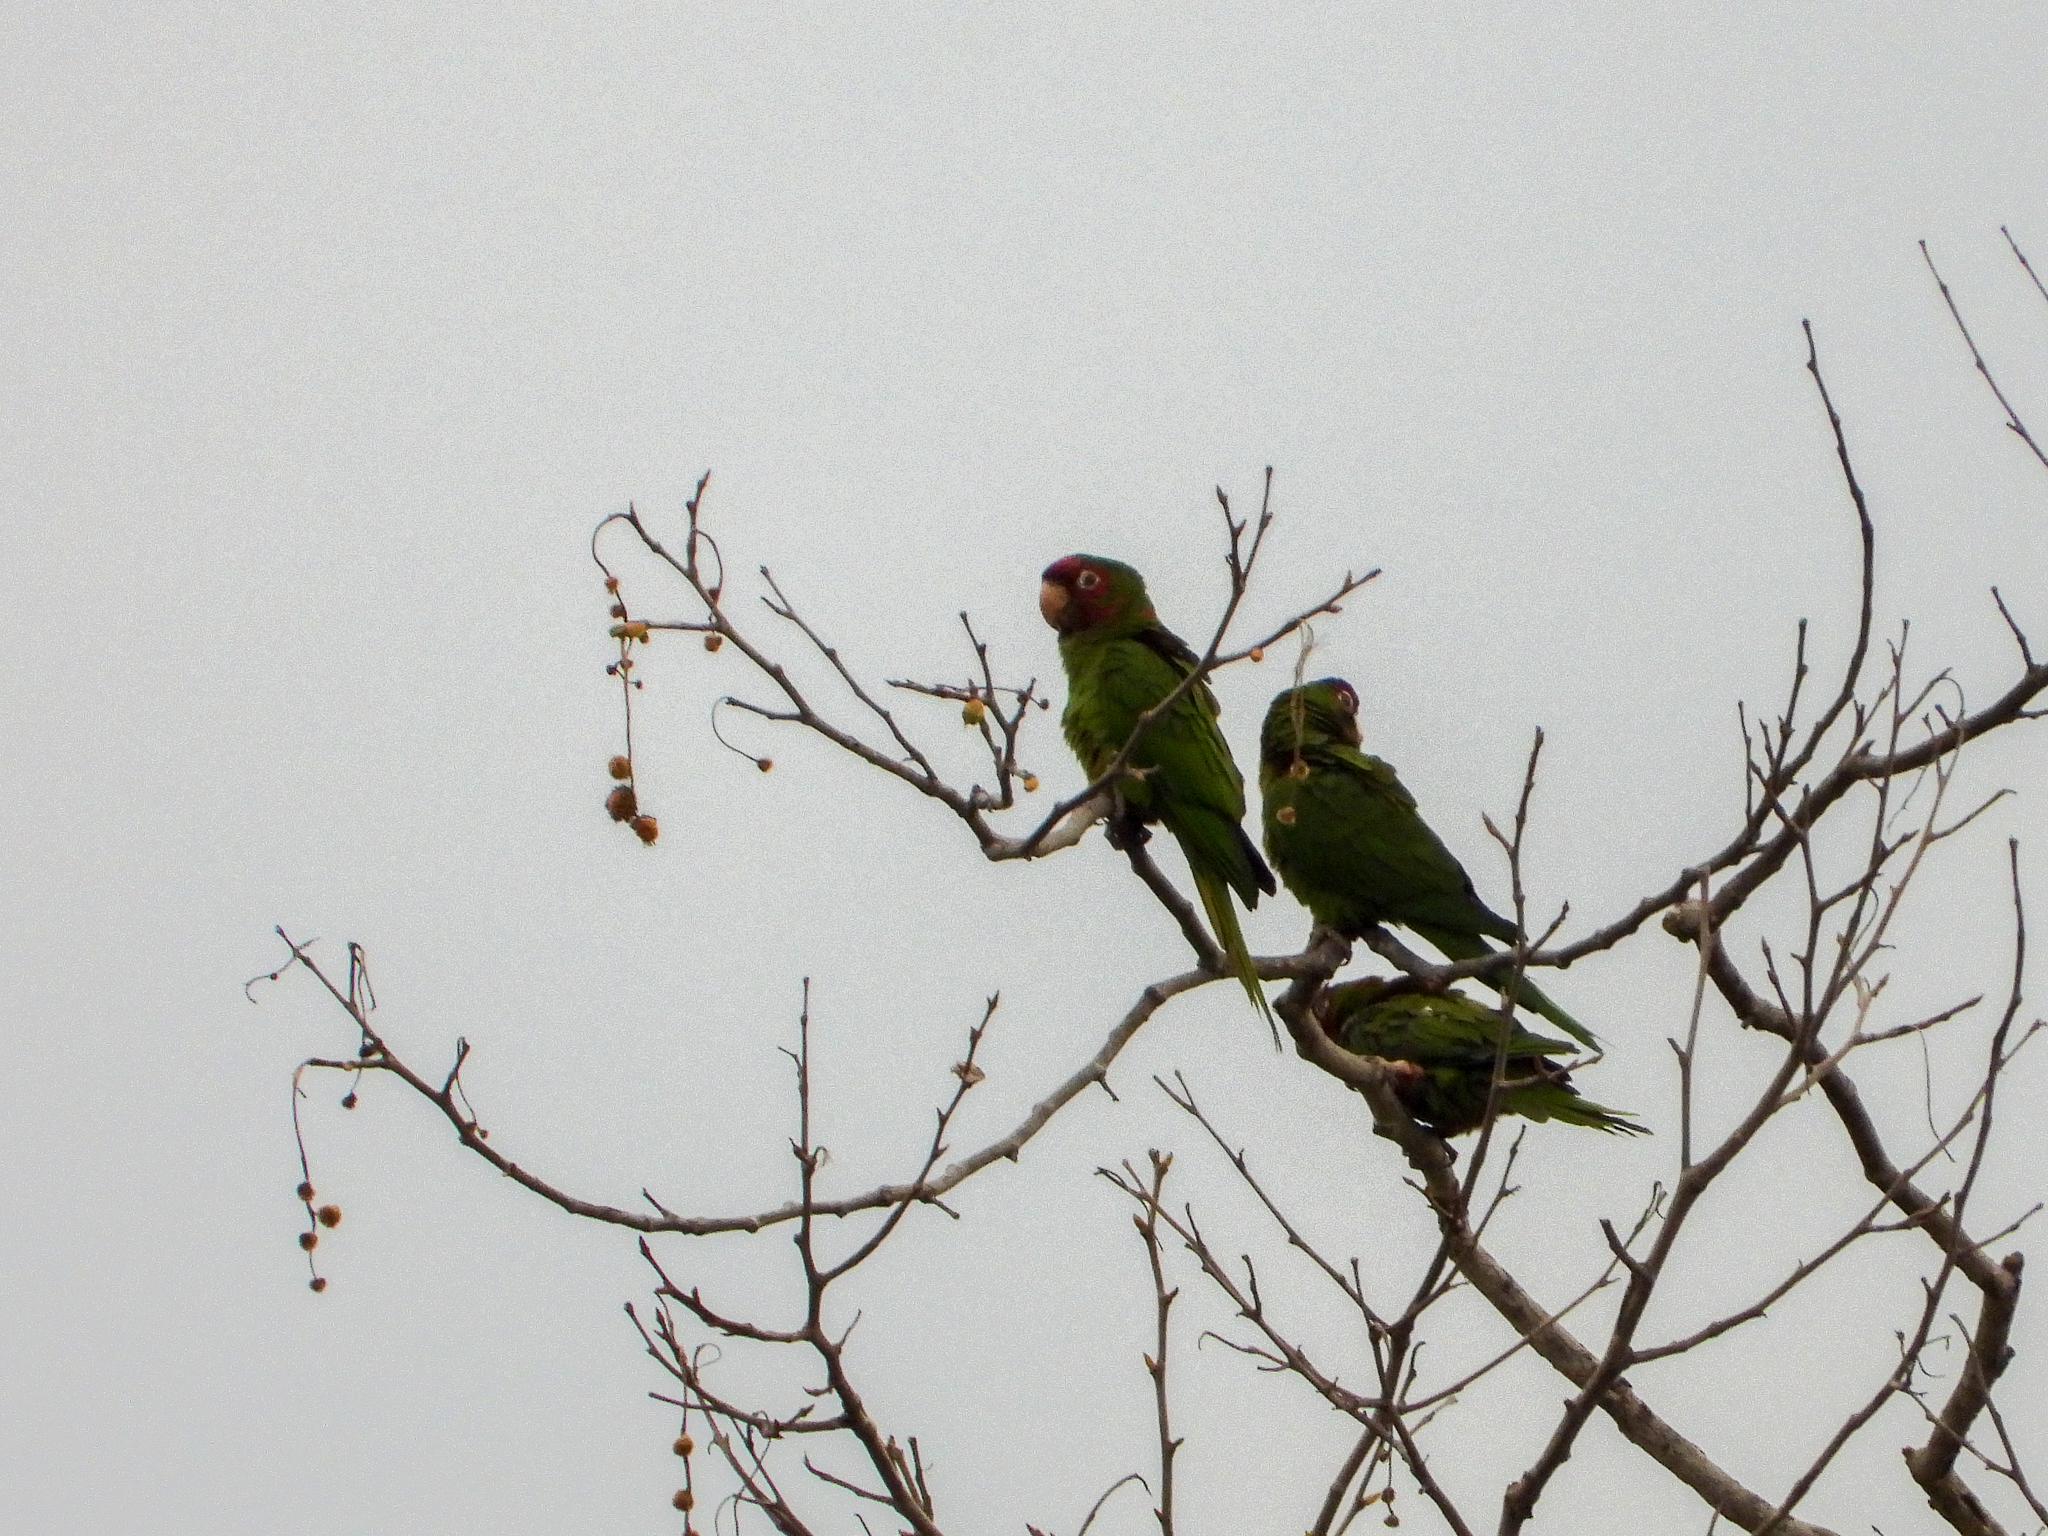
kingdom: Animalia
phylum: Chordata
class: Aves
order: Psittaciformes
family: Psittacidae
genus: Aratinga
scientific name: Aratinga mitrata
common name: Mitred parakeet
